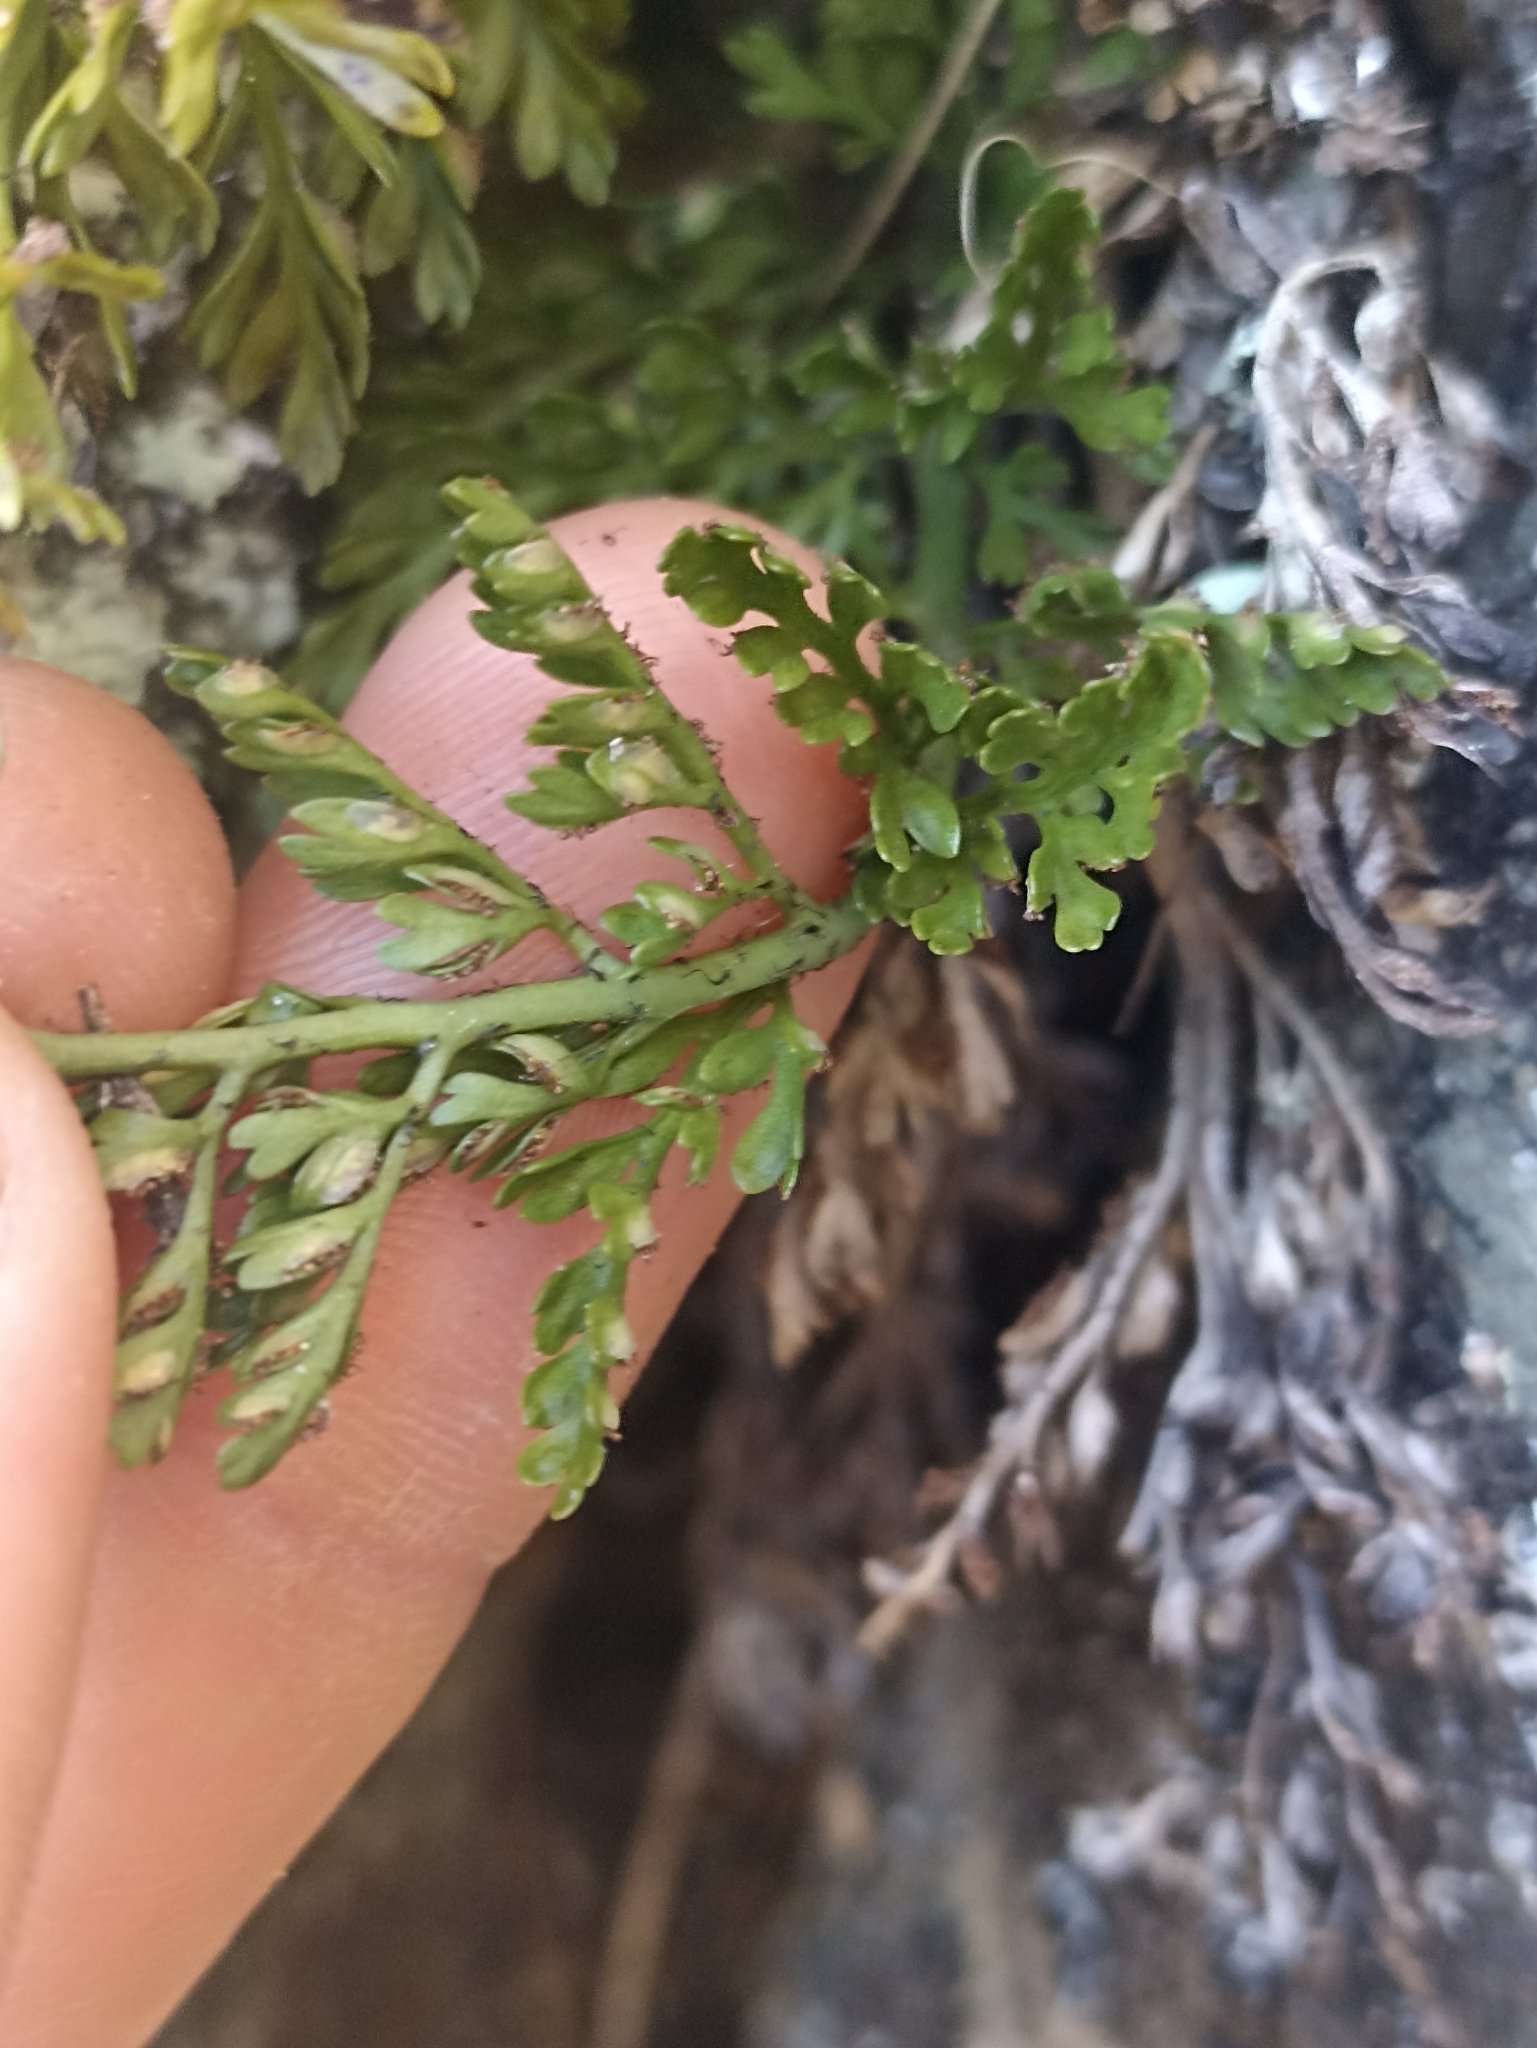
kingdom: Plantae
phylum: Tracheophyta
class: Polypodiopsida
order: Polypodiales
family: Aspleniaceae
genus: Asplenium
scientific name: Asplenium richardii
